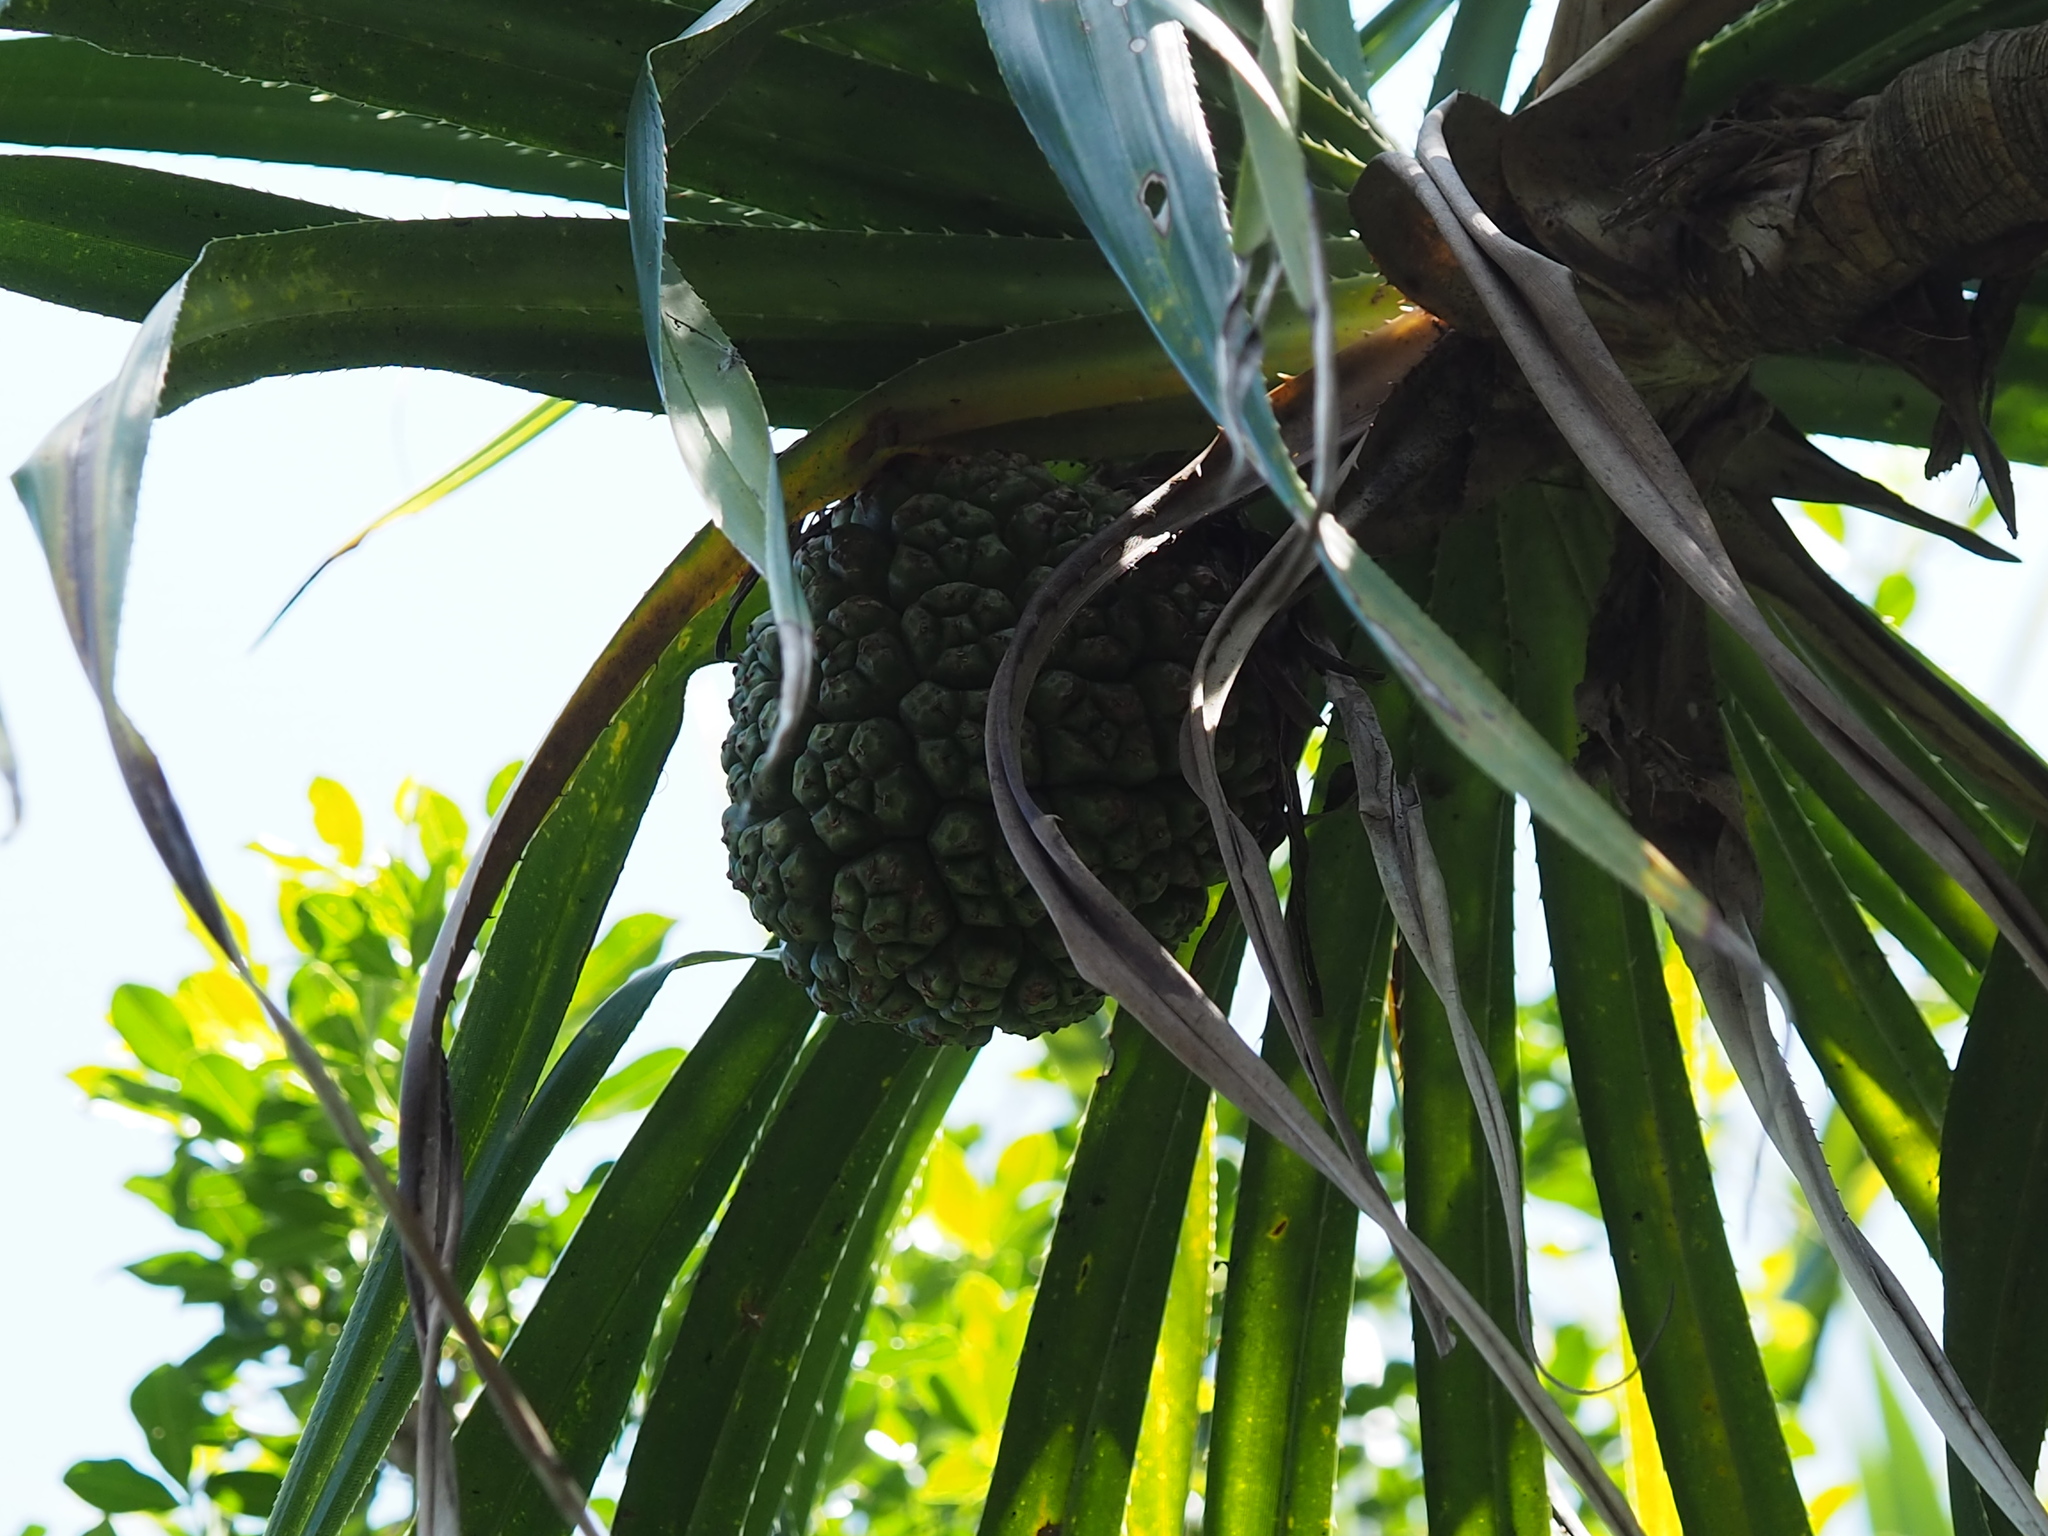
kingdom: Plantae
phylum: Tracheophyta
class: Liliopsida
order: Pandanales
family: Pandanaceae
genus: Pandanus
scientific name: Pandanus odorifer
